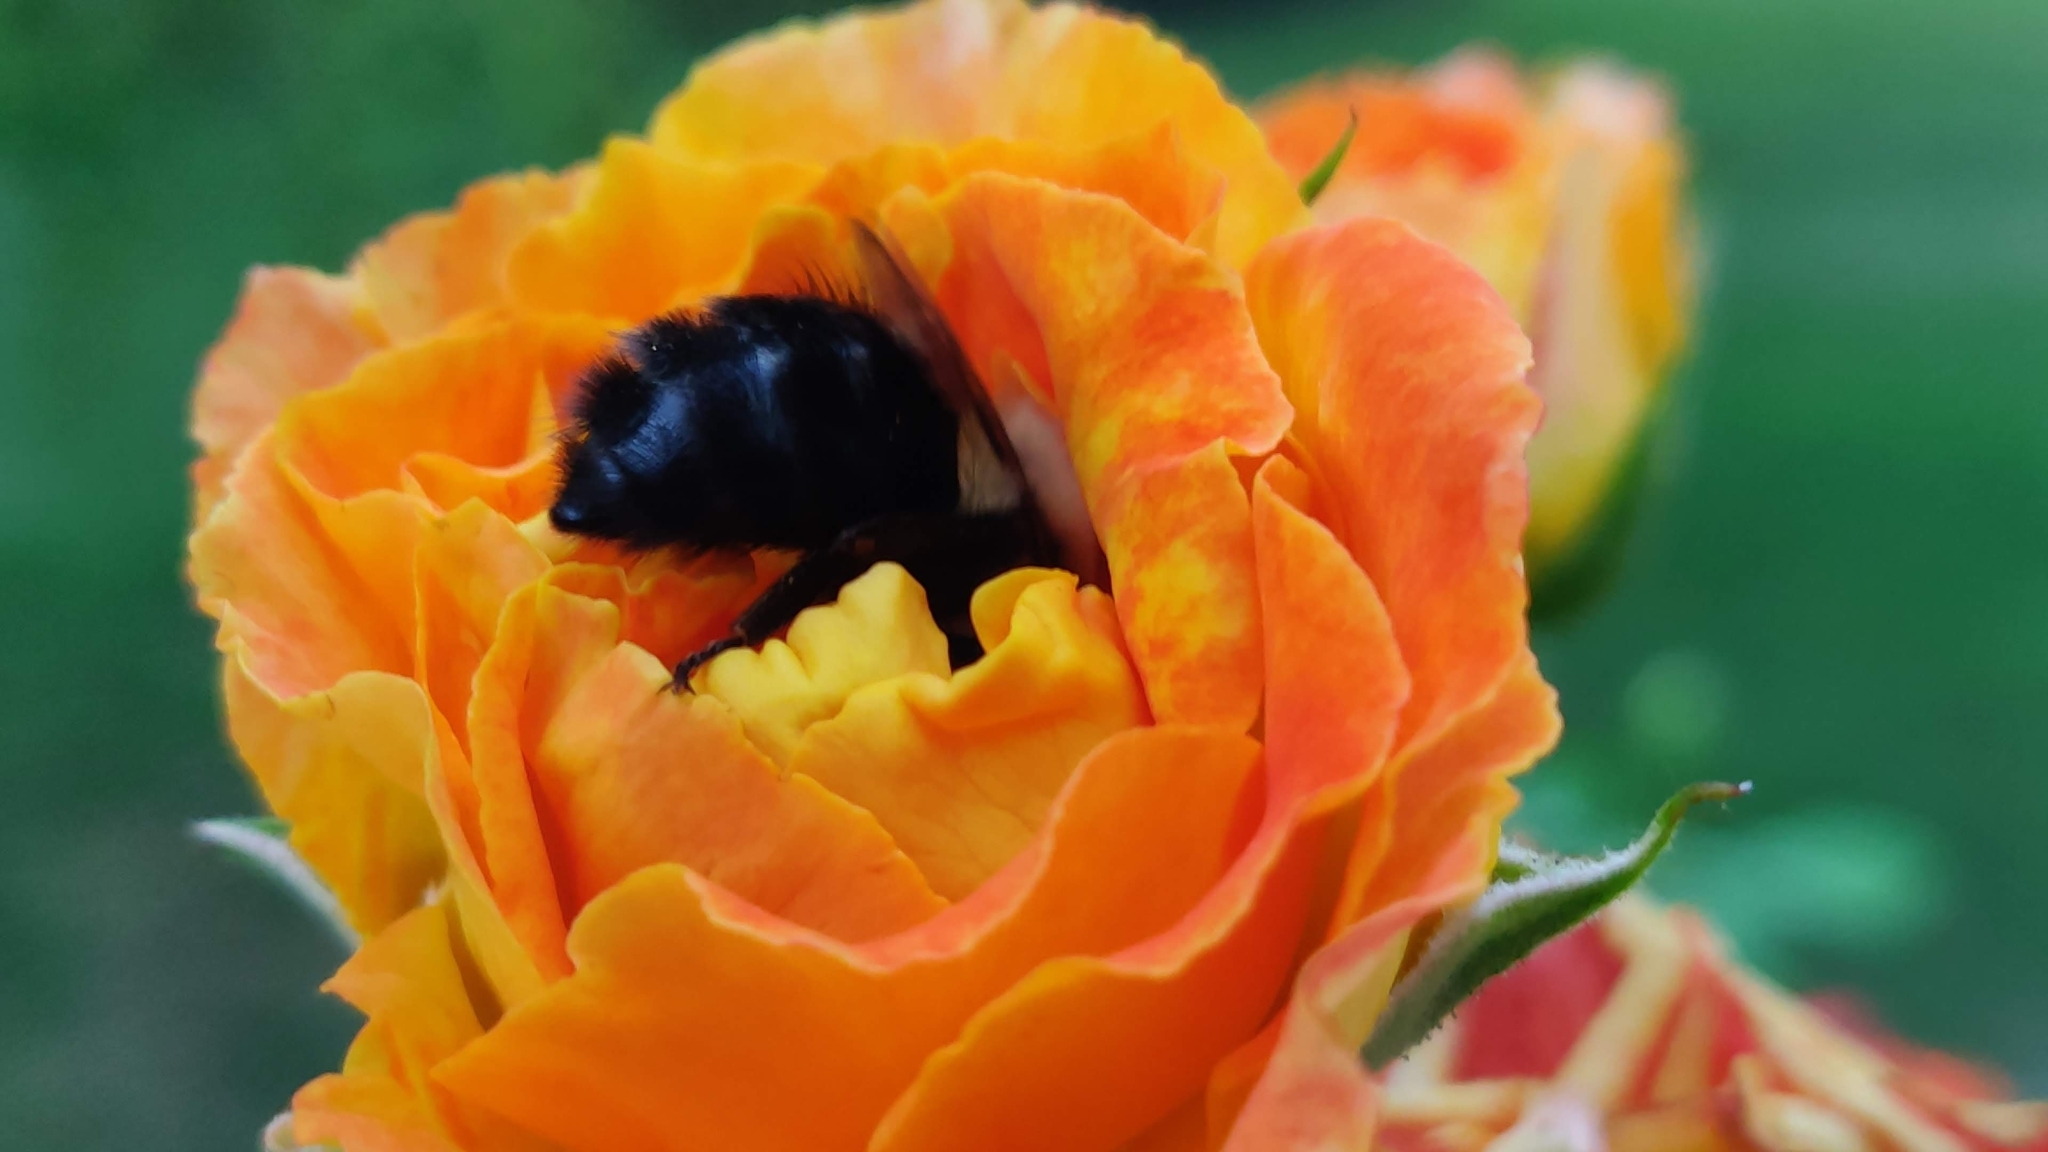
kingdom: Animalia
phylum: Arthropoda
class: Insecta
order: Hymenoptera
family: Apidae
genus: Bombus
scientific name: Bombus impatiens
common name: Common eastern bumble bee
